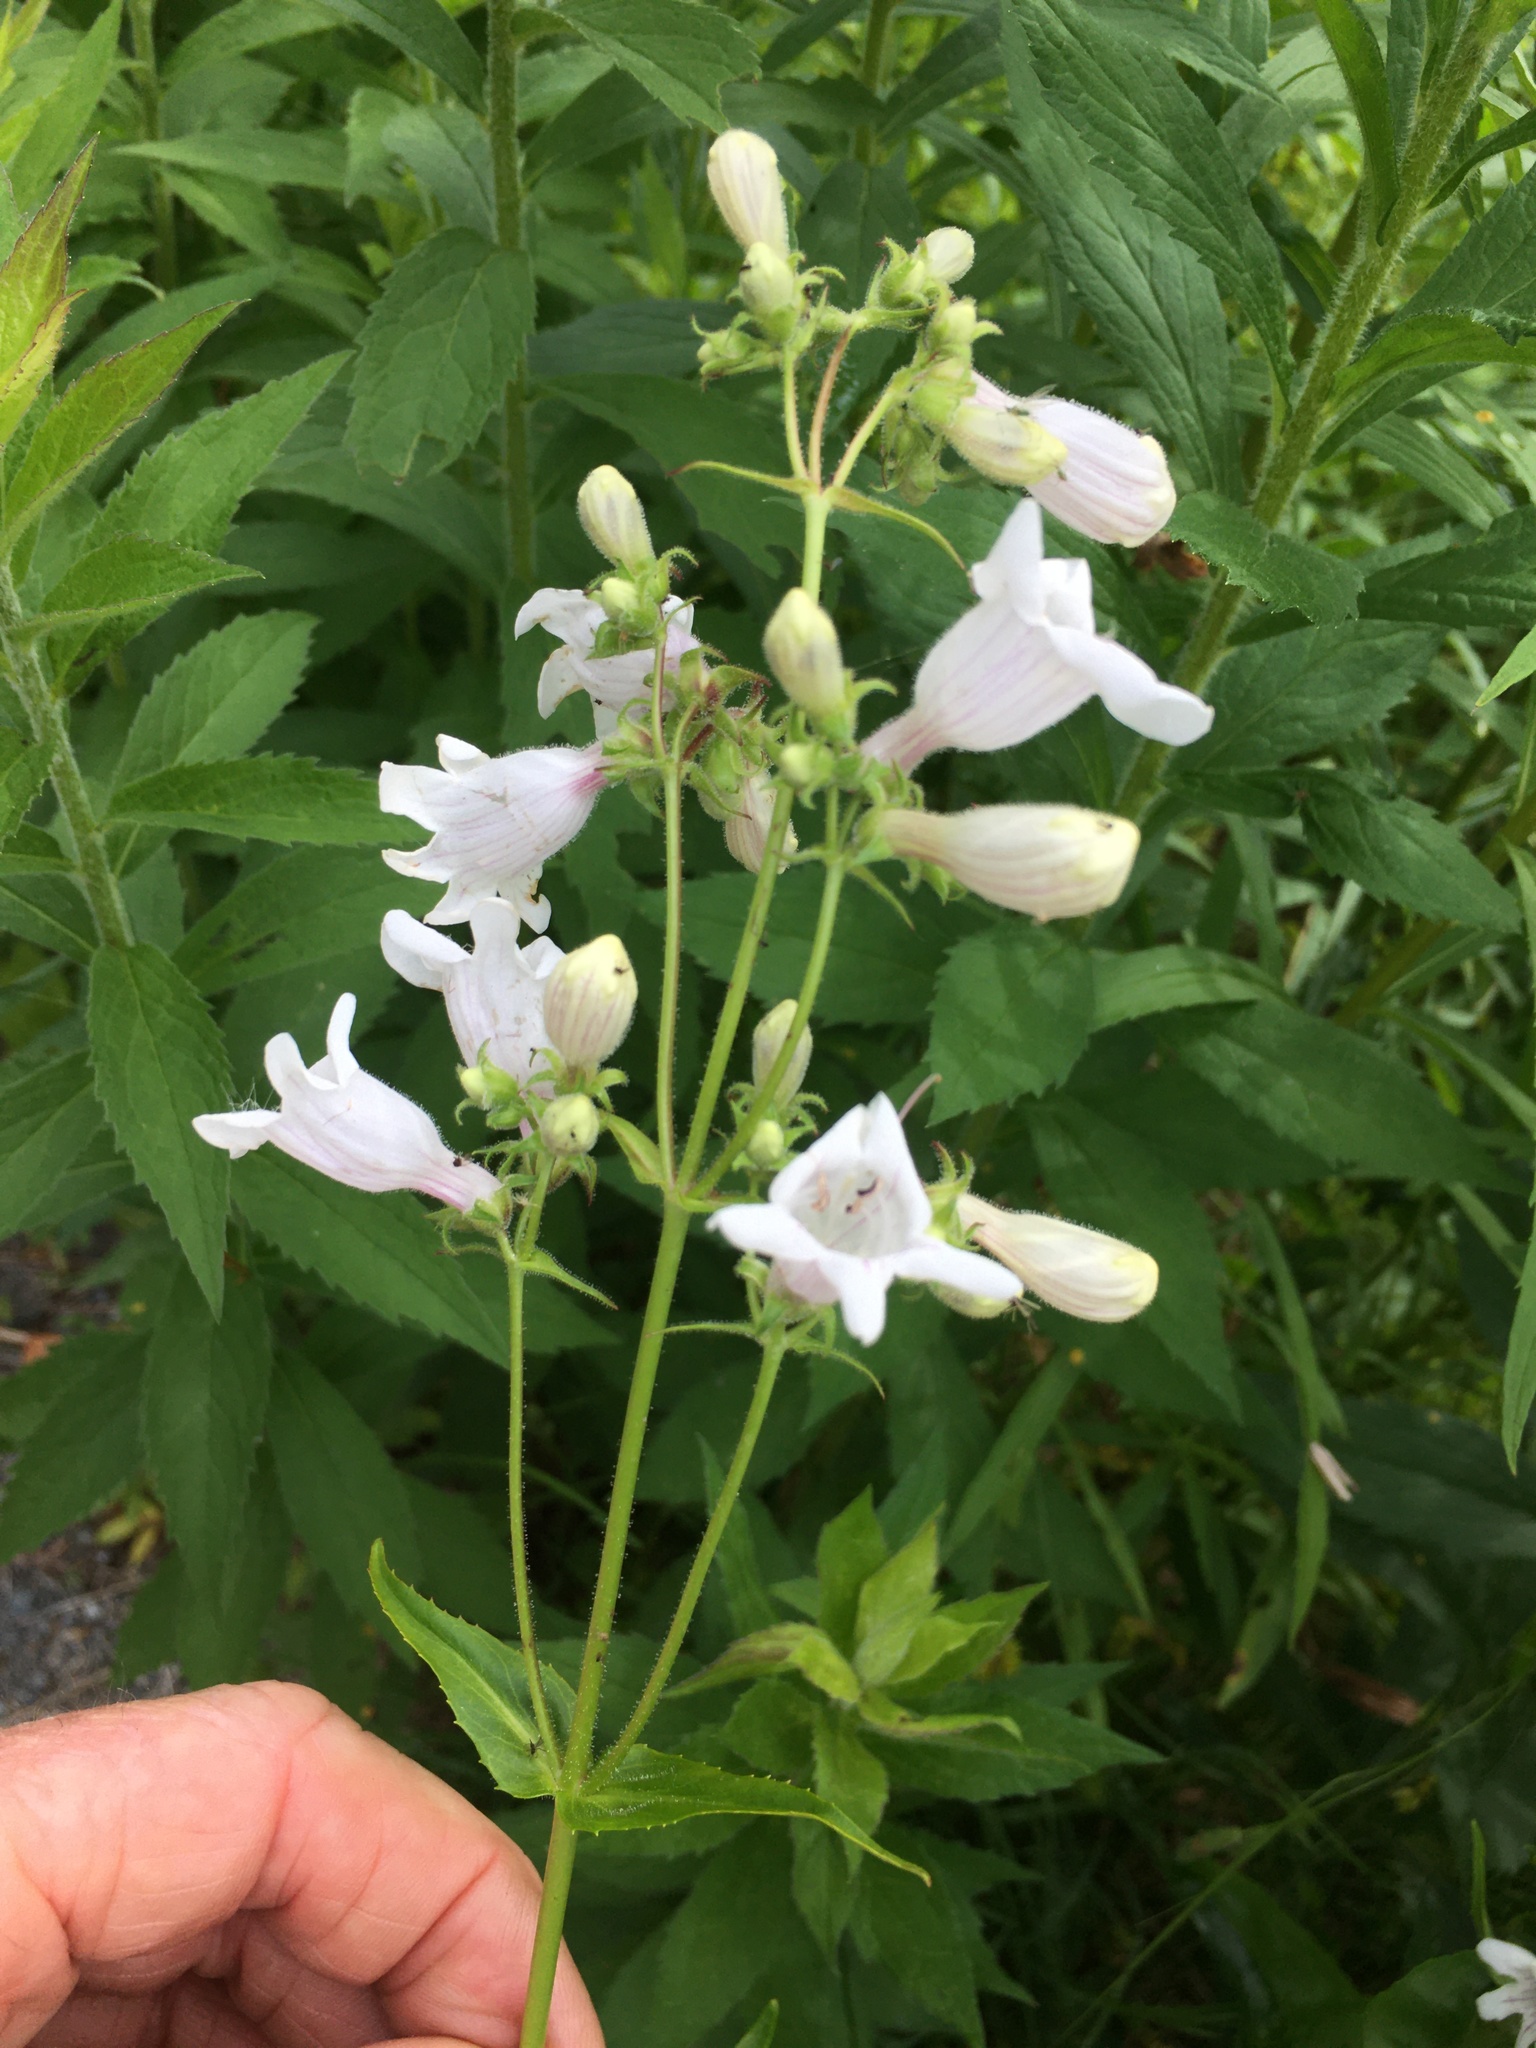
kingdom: Plantae
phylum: Tracheophyta
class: Magnoliopsida
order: Lamiales
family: Plantaginaceae
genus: Penstemon
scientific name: Penstemon digitalis
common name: Foxglove beardtongue
